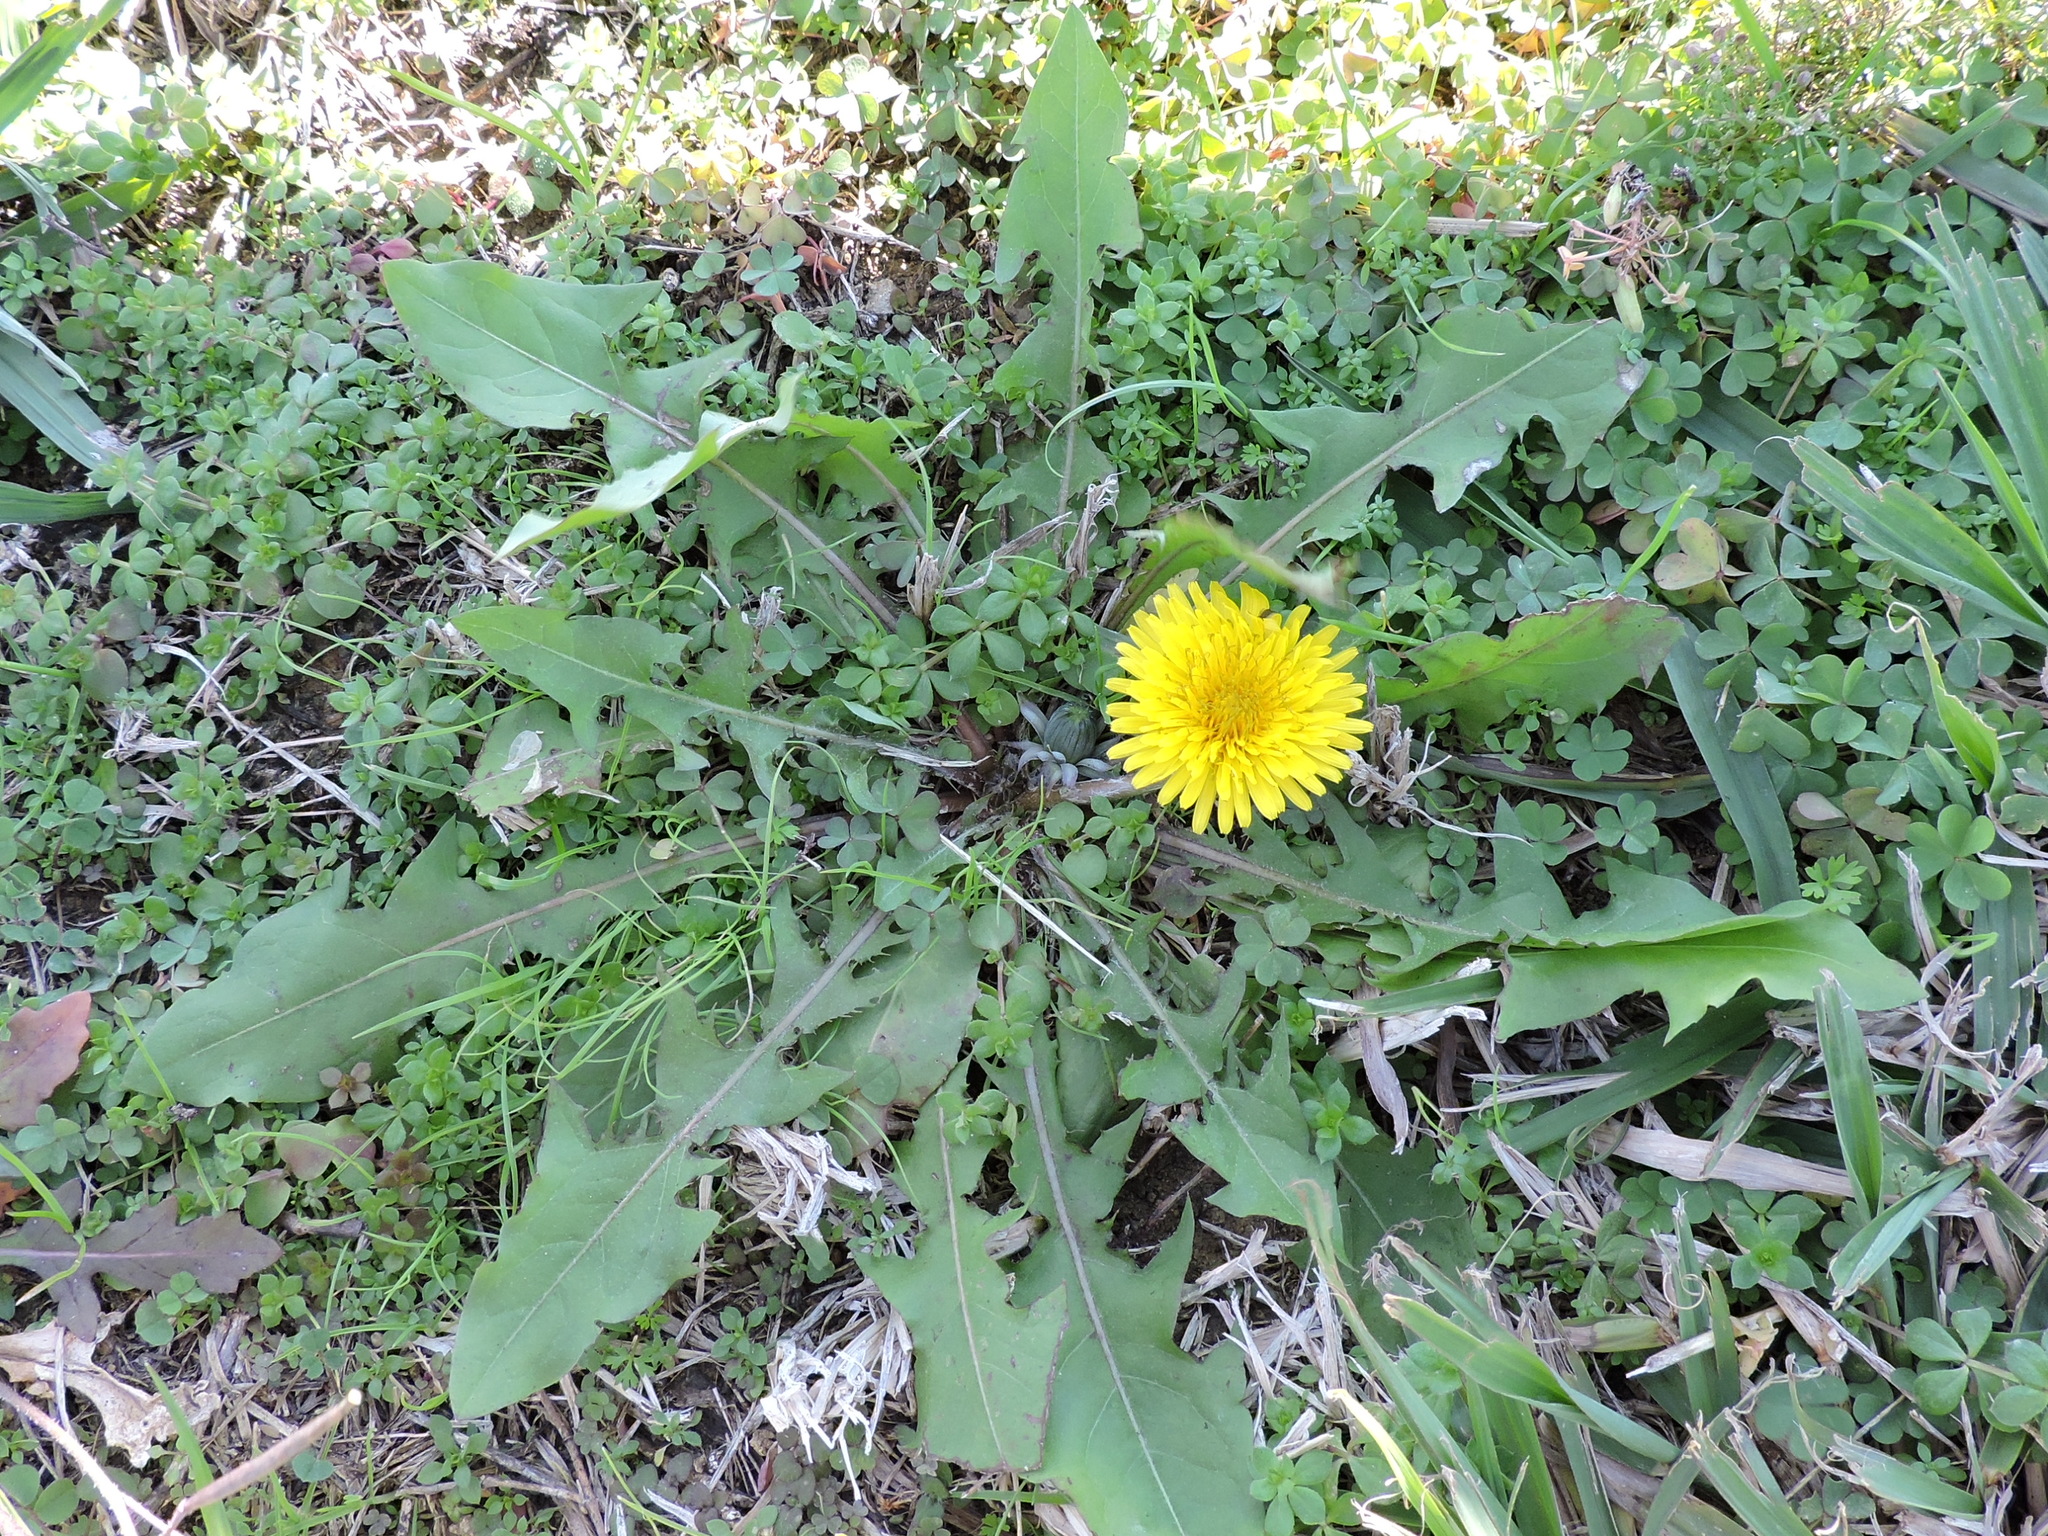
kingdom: Plantae
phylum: Tracheophyta
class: Magnoliopsida
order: Asterales
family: Asteraceae
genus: Taraxacum
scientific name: Taraxacum officinale
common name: Common dandelion
